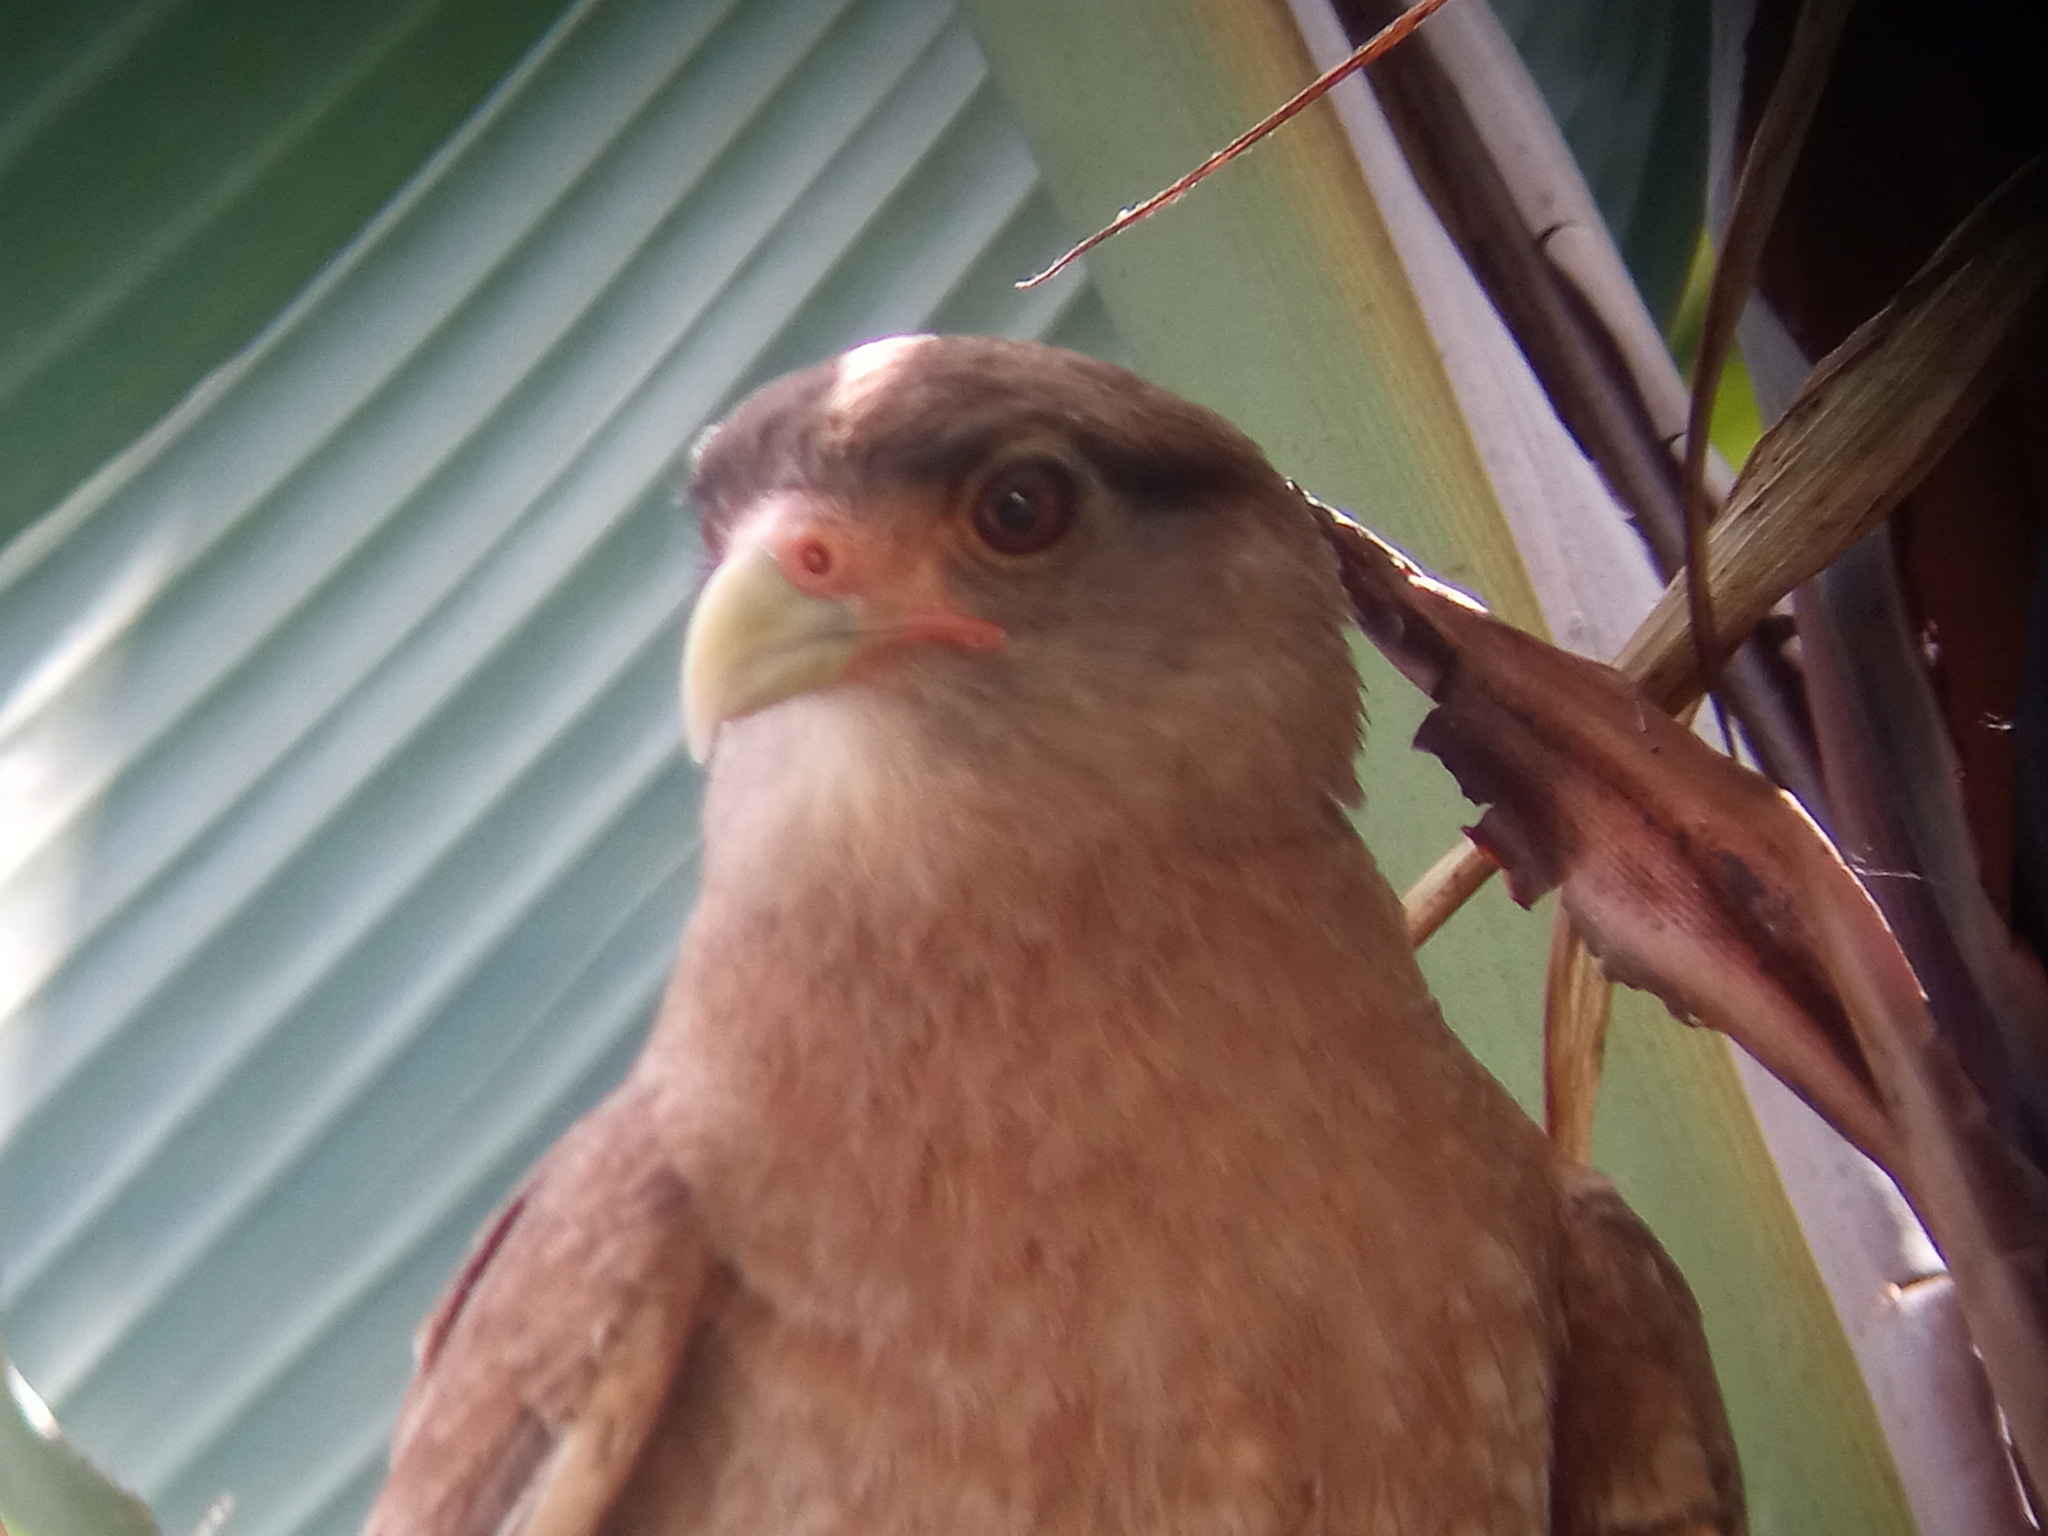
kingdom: Animalia
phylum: Chordata
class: Aves
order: Falconiformes
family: Falconidae
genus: Daptrius
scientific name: Daptrius
